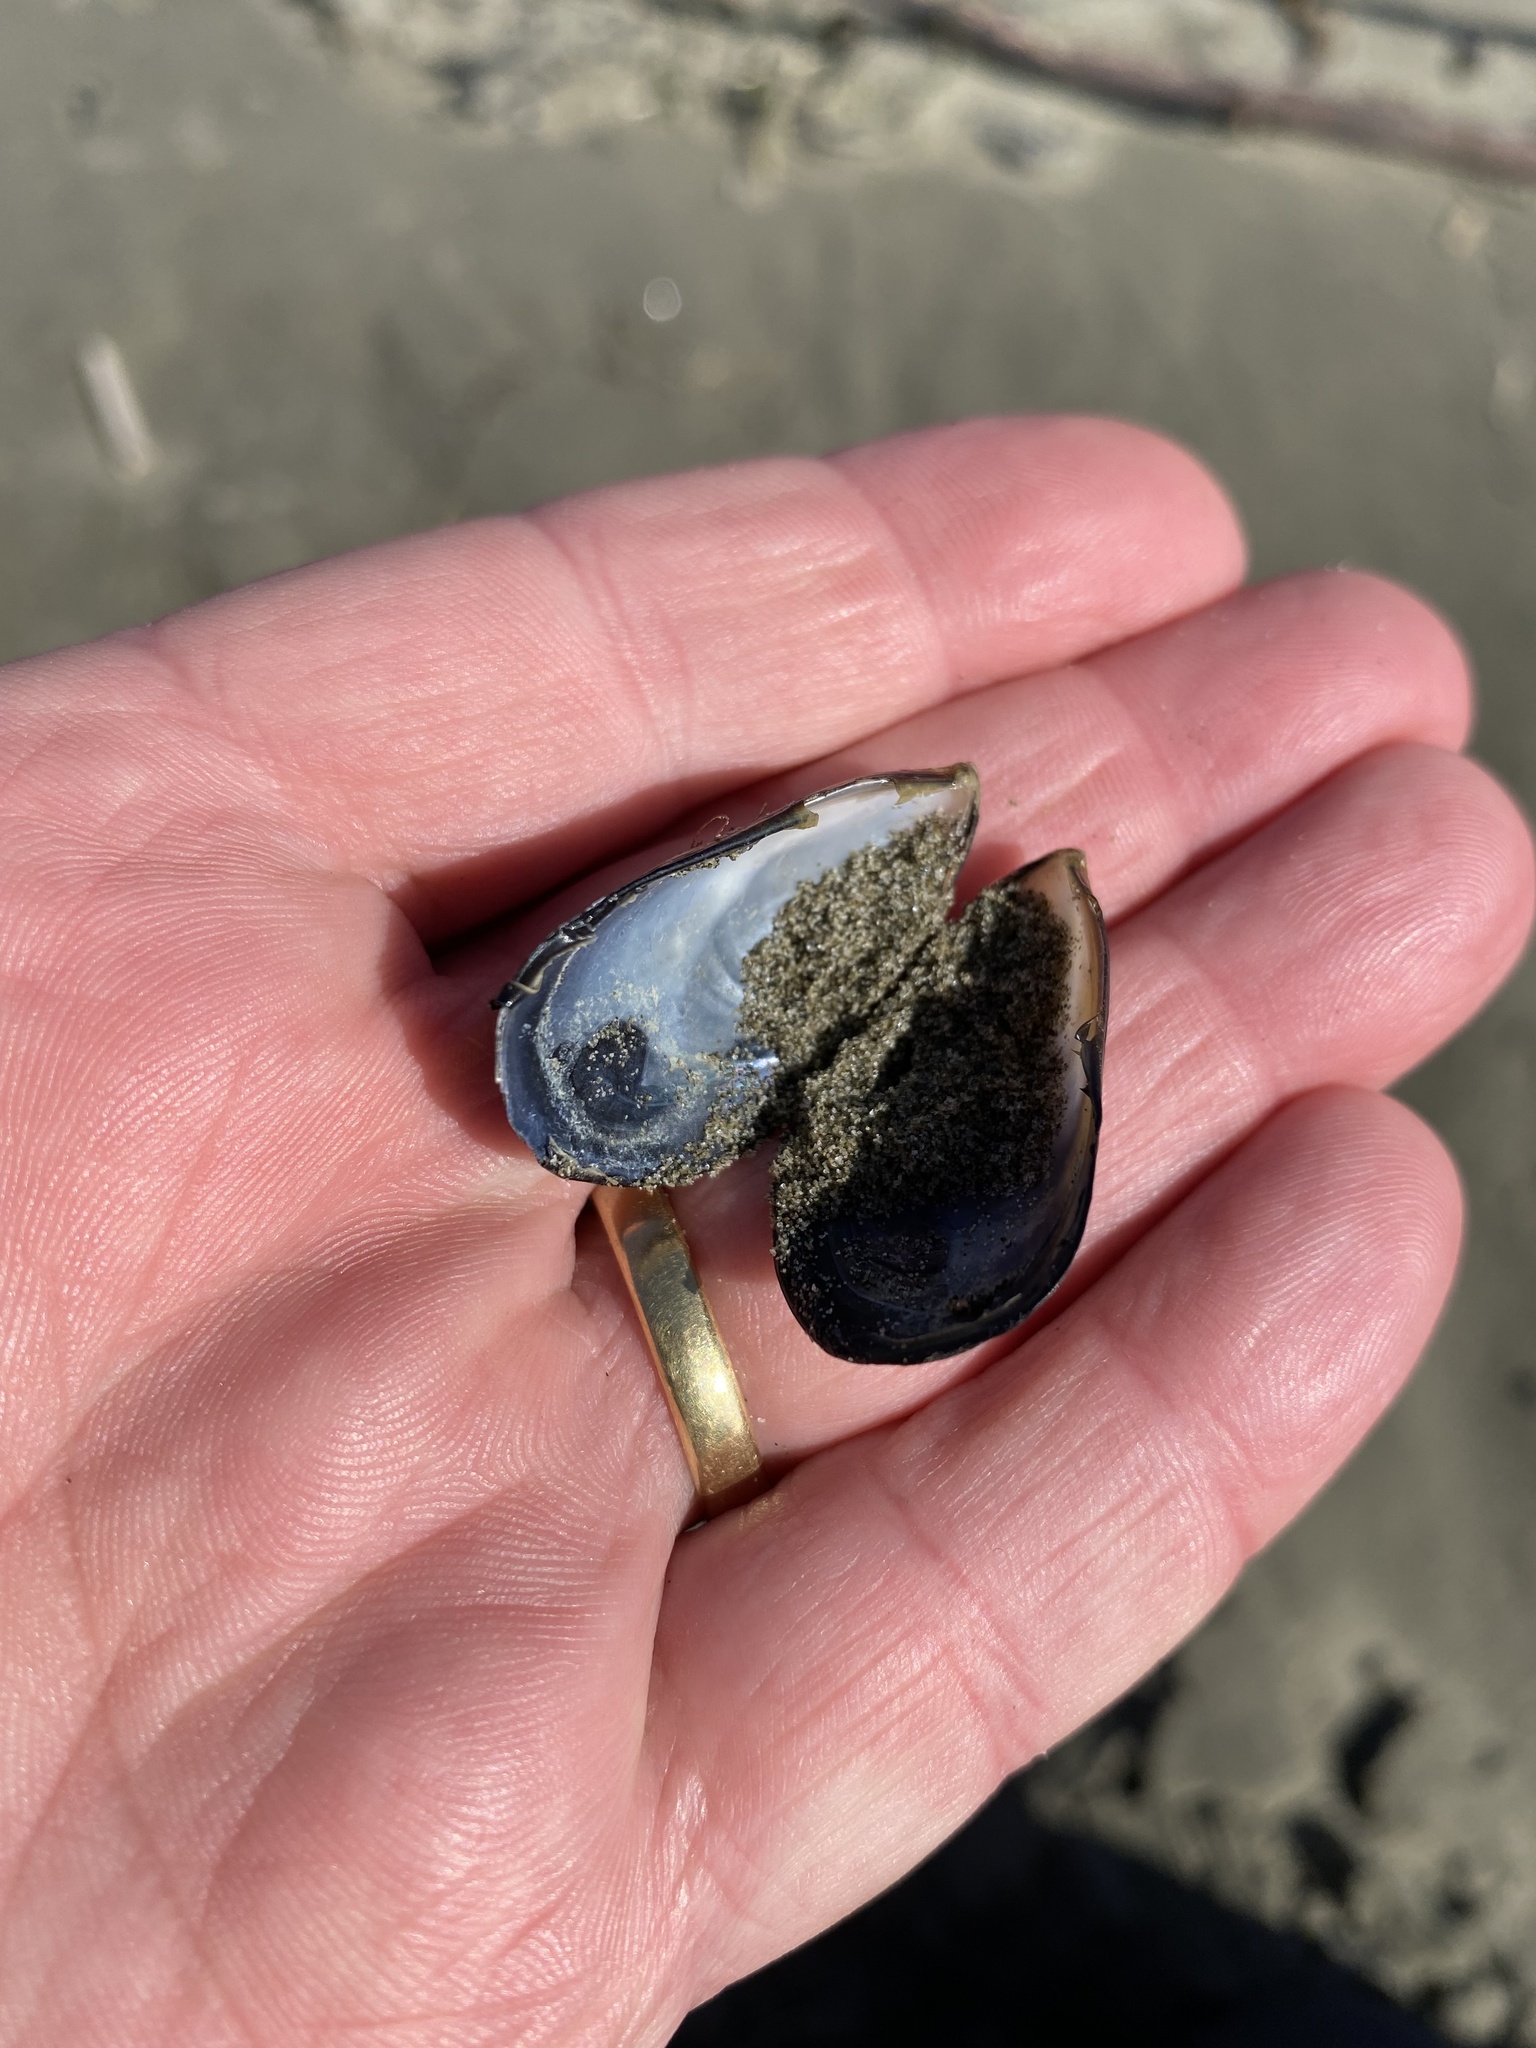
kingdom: Animalia
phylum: Mollusca
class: Bivalvia
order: Mytilida
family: Mytilidae
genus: Mytilus
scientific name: Mytilus planulatus
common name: Australian mussel
